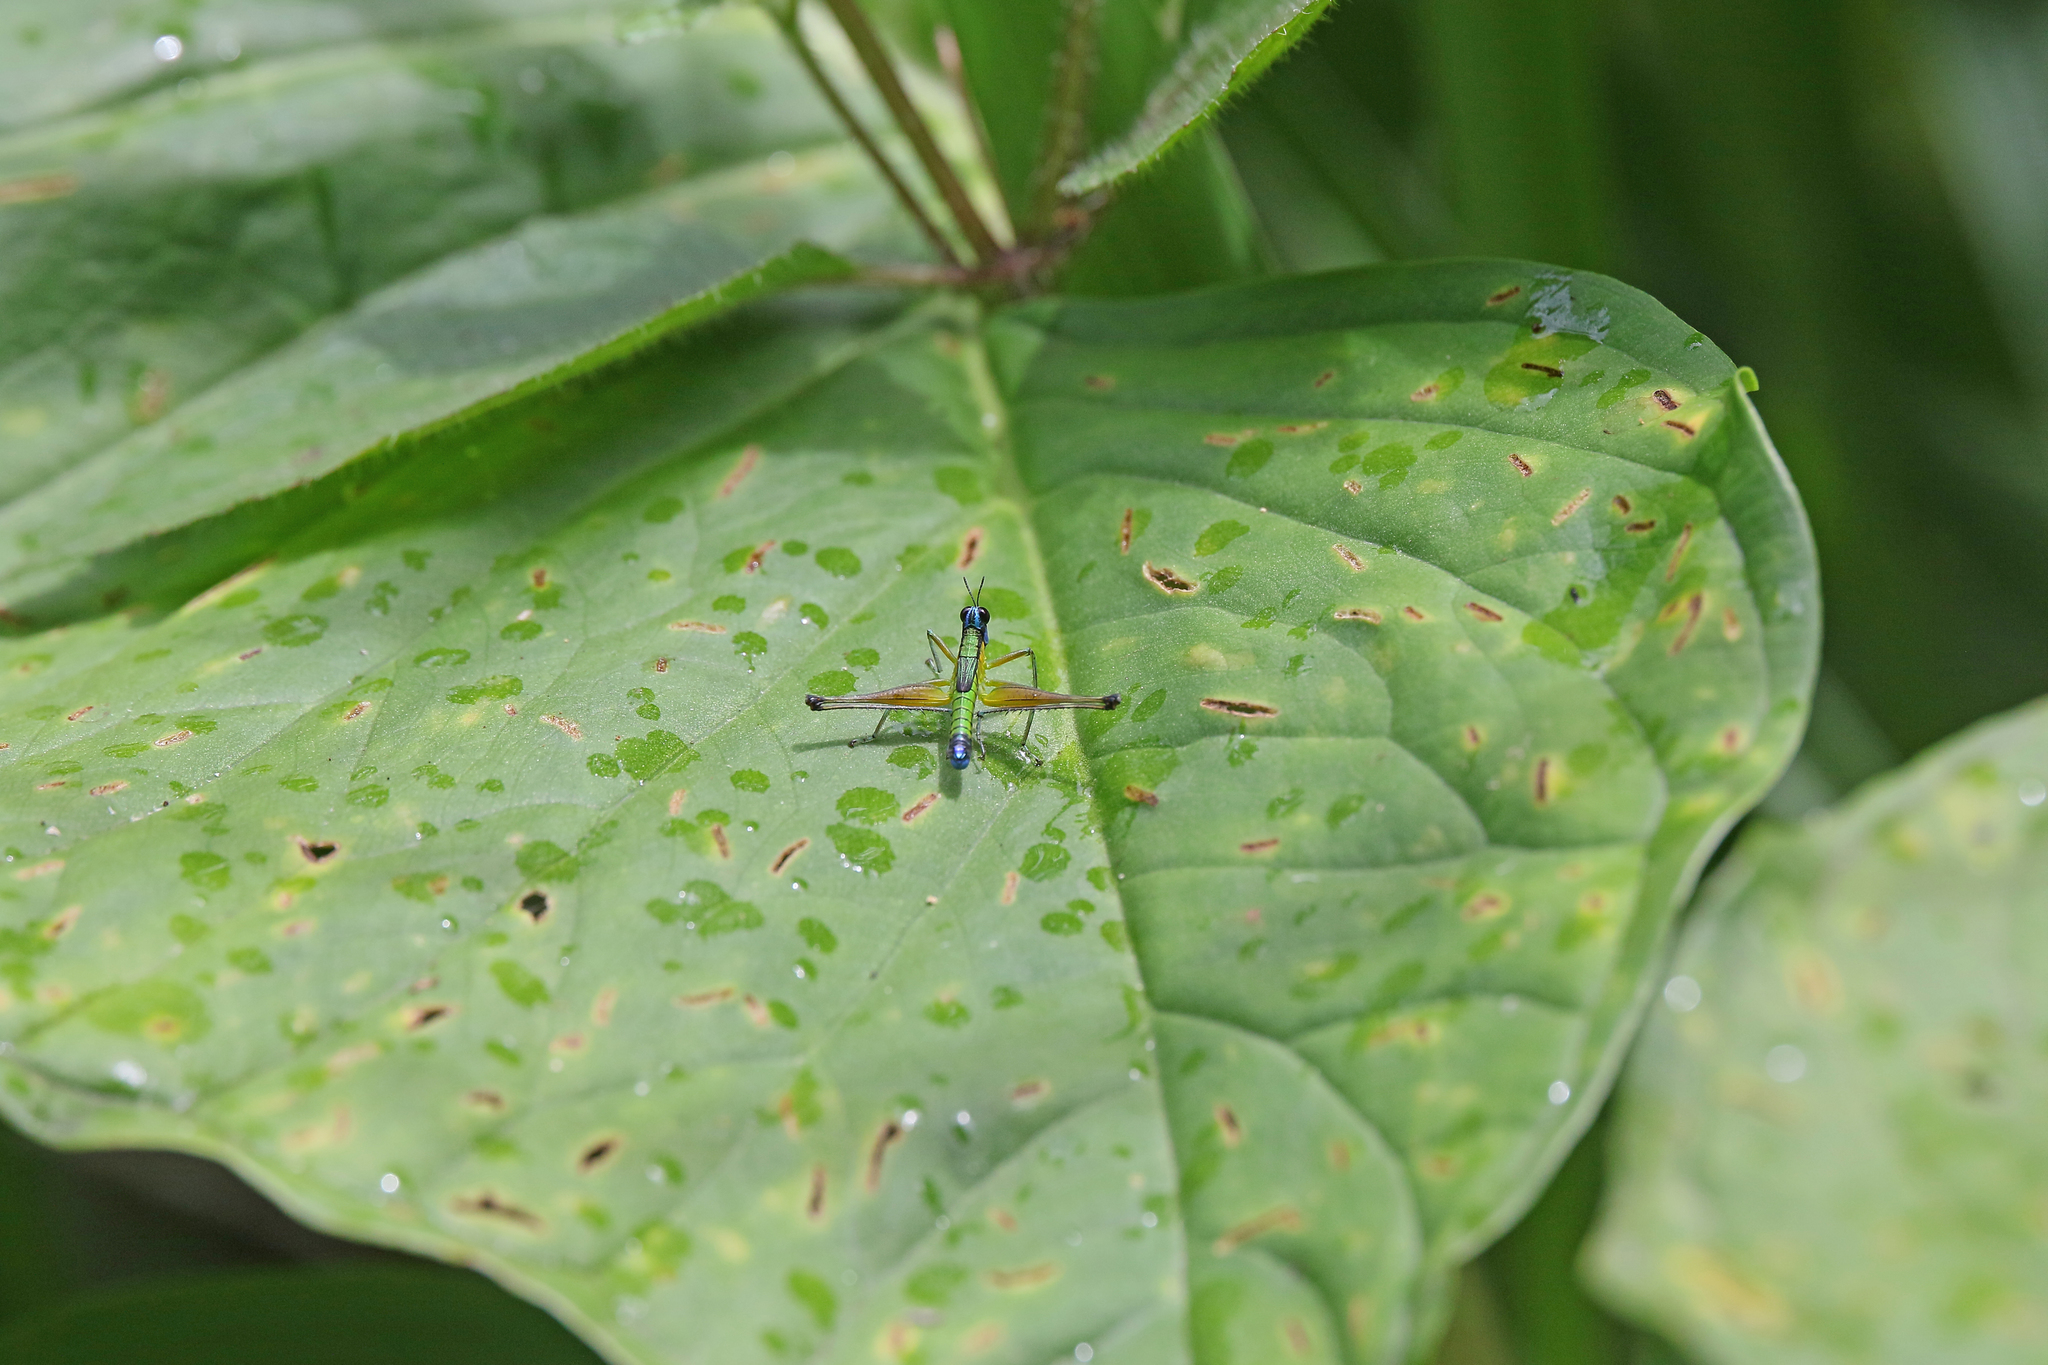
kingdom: Animalia
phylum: Arthropoda
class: Insecta
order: Orthoptera
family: Eumastacidae
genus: Eumastax
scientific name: Eumastax equatoriana
